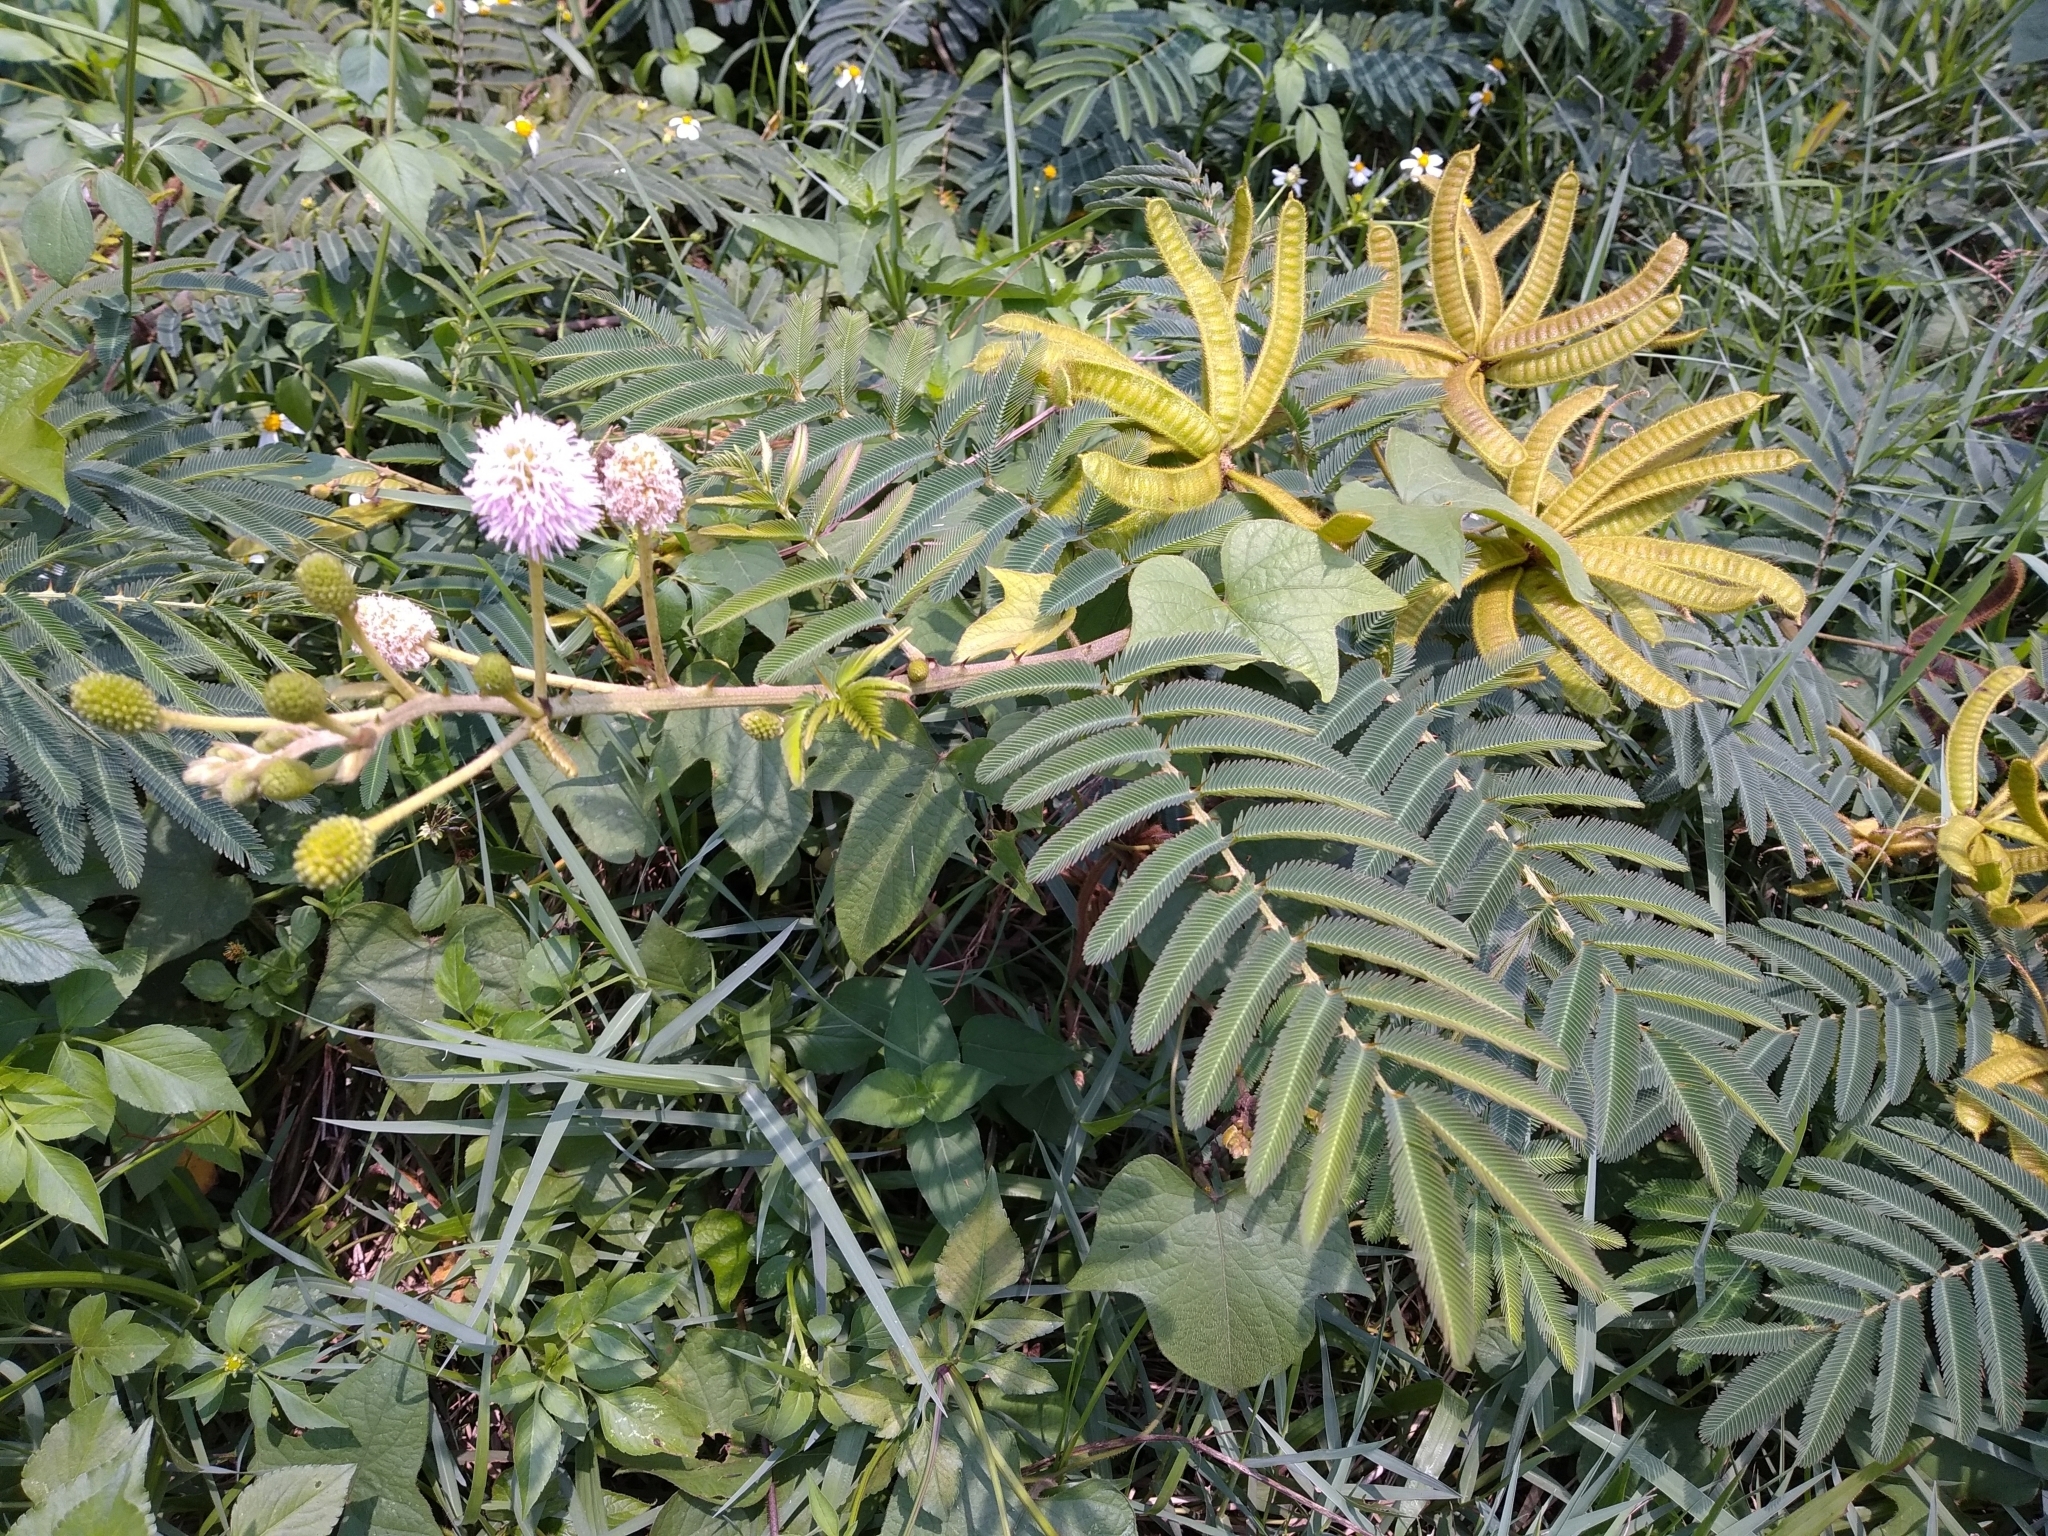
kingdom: Plantae
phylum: Tracheophyta
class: Magnoliopsida
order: Fabales
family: Fabaceae
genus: Mimosa
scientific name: Mimosa pigra
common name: Black mimosa
